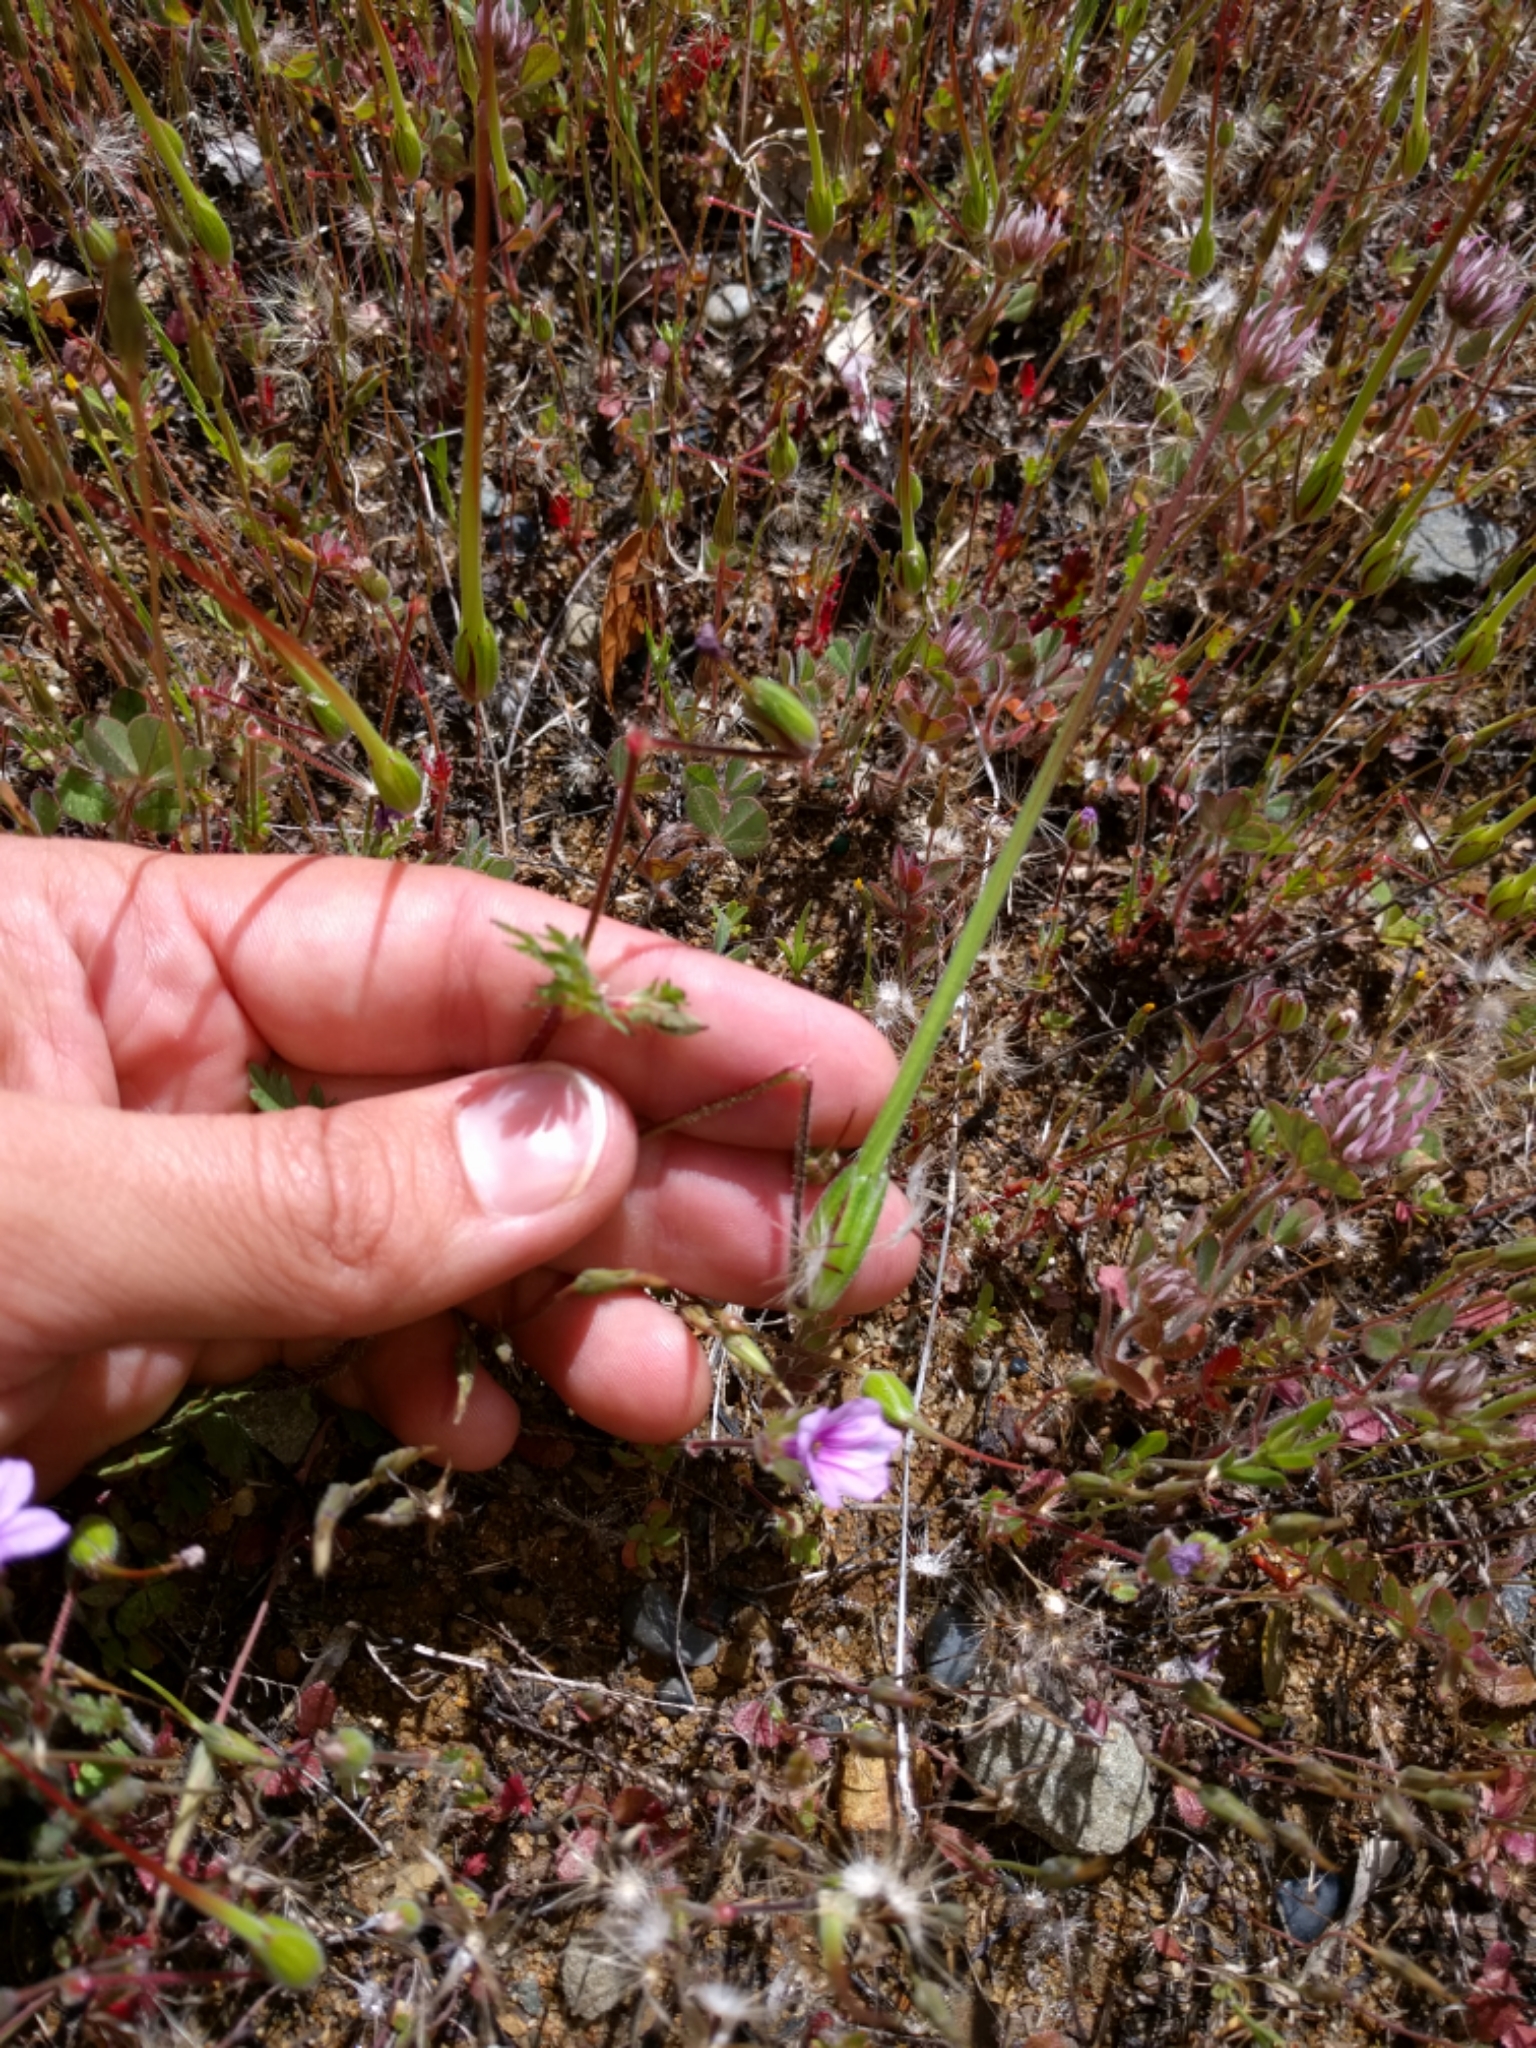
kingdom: Plantae
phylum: Tracheophyta
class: Magnoliopsida
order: Geraniales
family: Geraniaceae
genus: Erodium
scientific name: Erodium botrys
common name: Mediterranean stork's-bill
